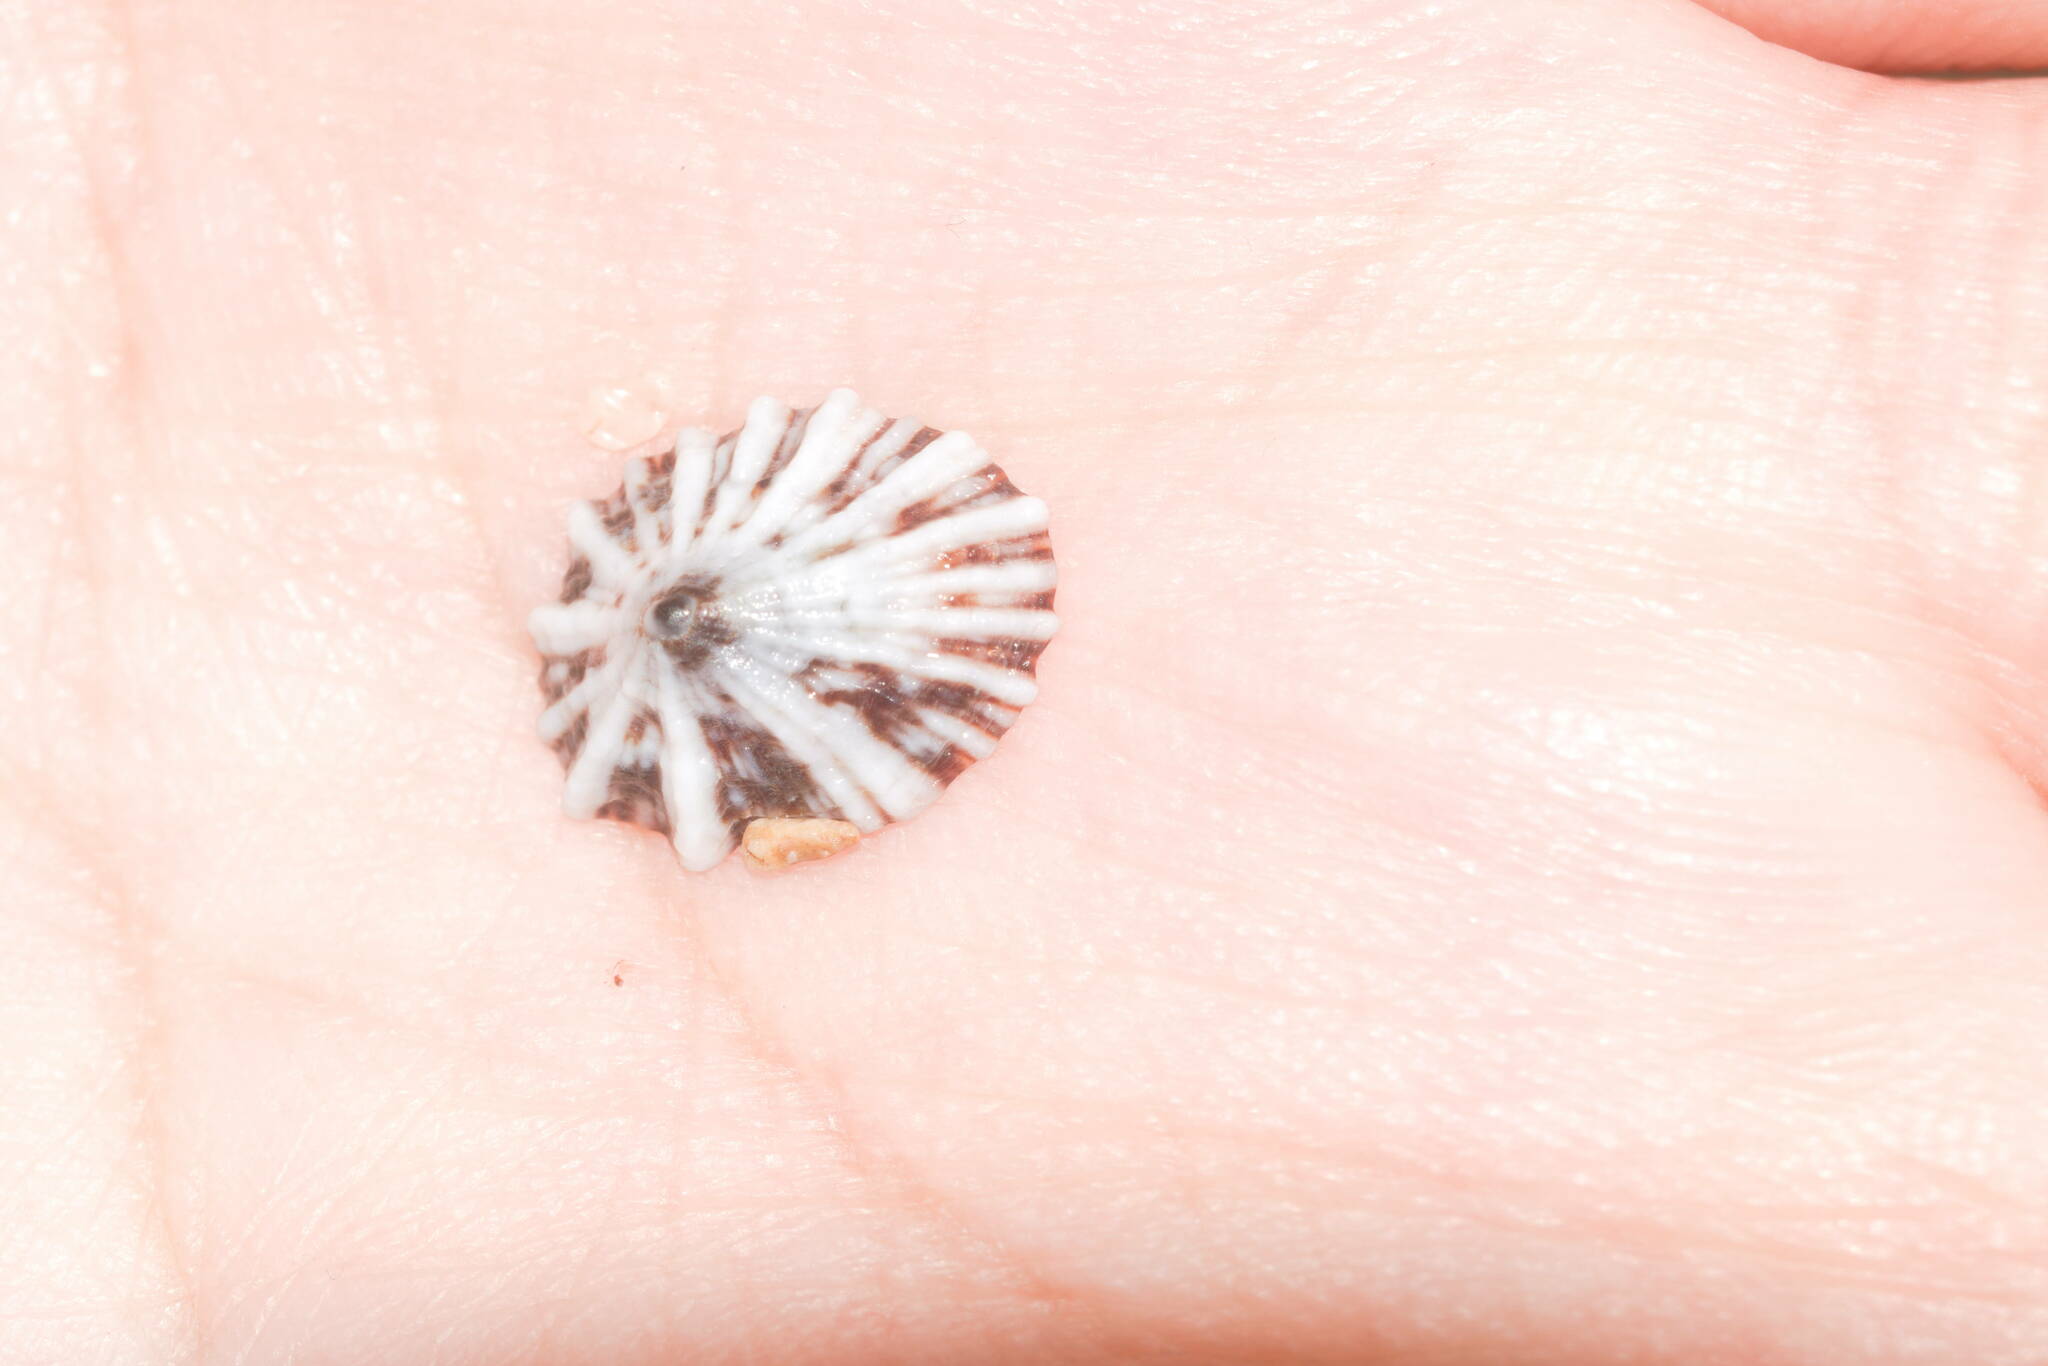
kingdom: Animalia
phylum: Mollusca
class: Gastropoda
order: Siphonariida
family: Siphonariidae
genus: Siphonaria
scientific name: Siphonaria normalis
